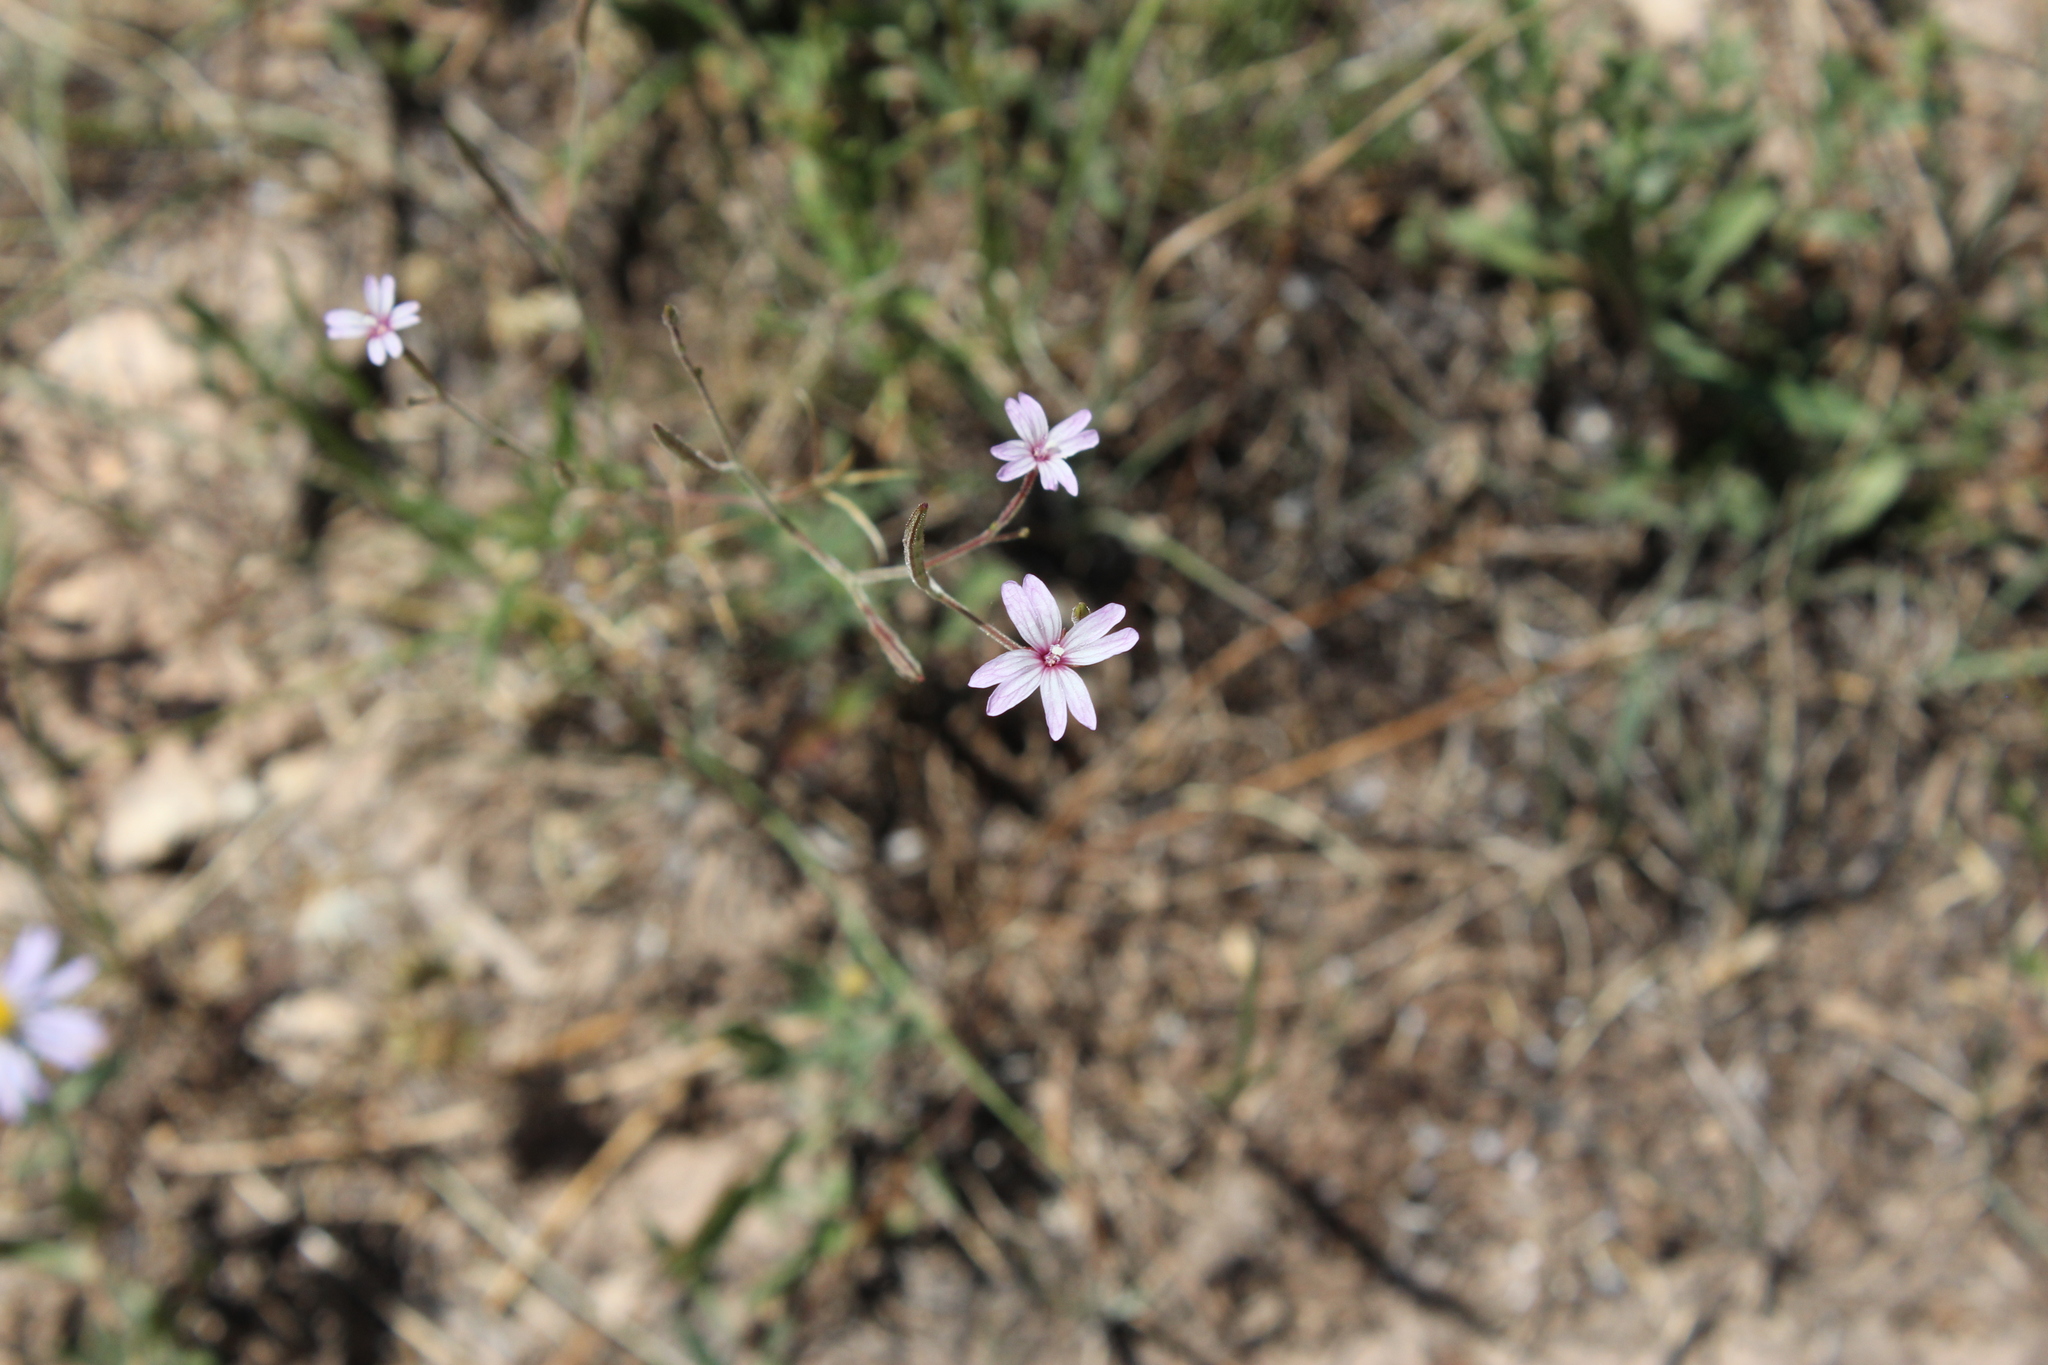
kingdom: Plantae
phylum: Tracheophyta
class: Magnoliopsida
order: Myrtales
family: Onagraceae
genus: Epilobium
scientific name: Epilobium brachycarpum
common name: Annual willowherb
